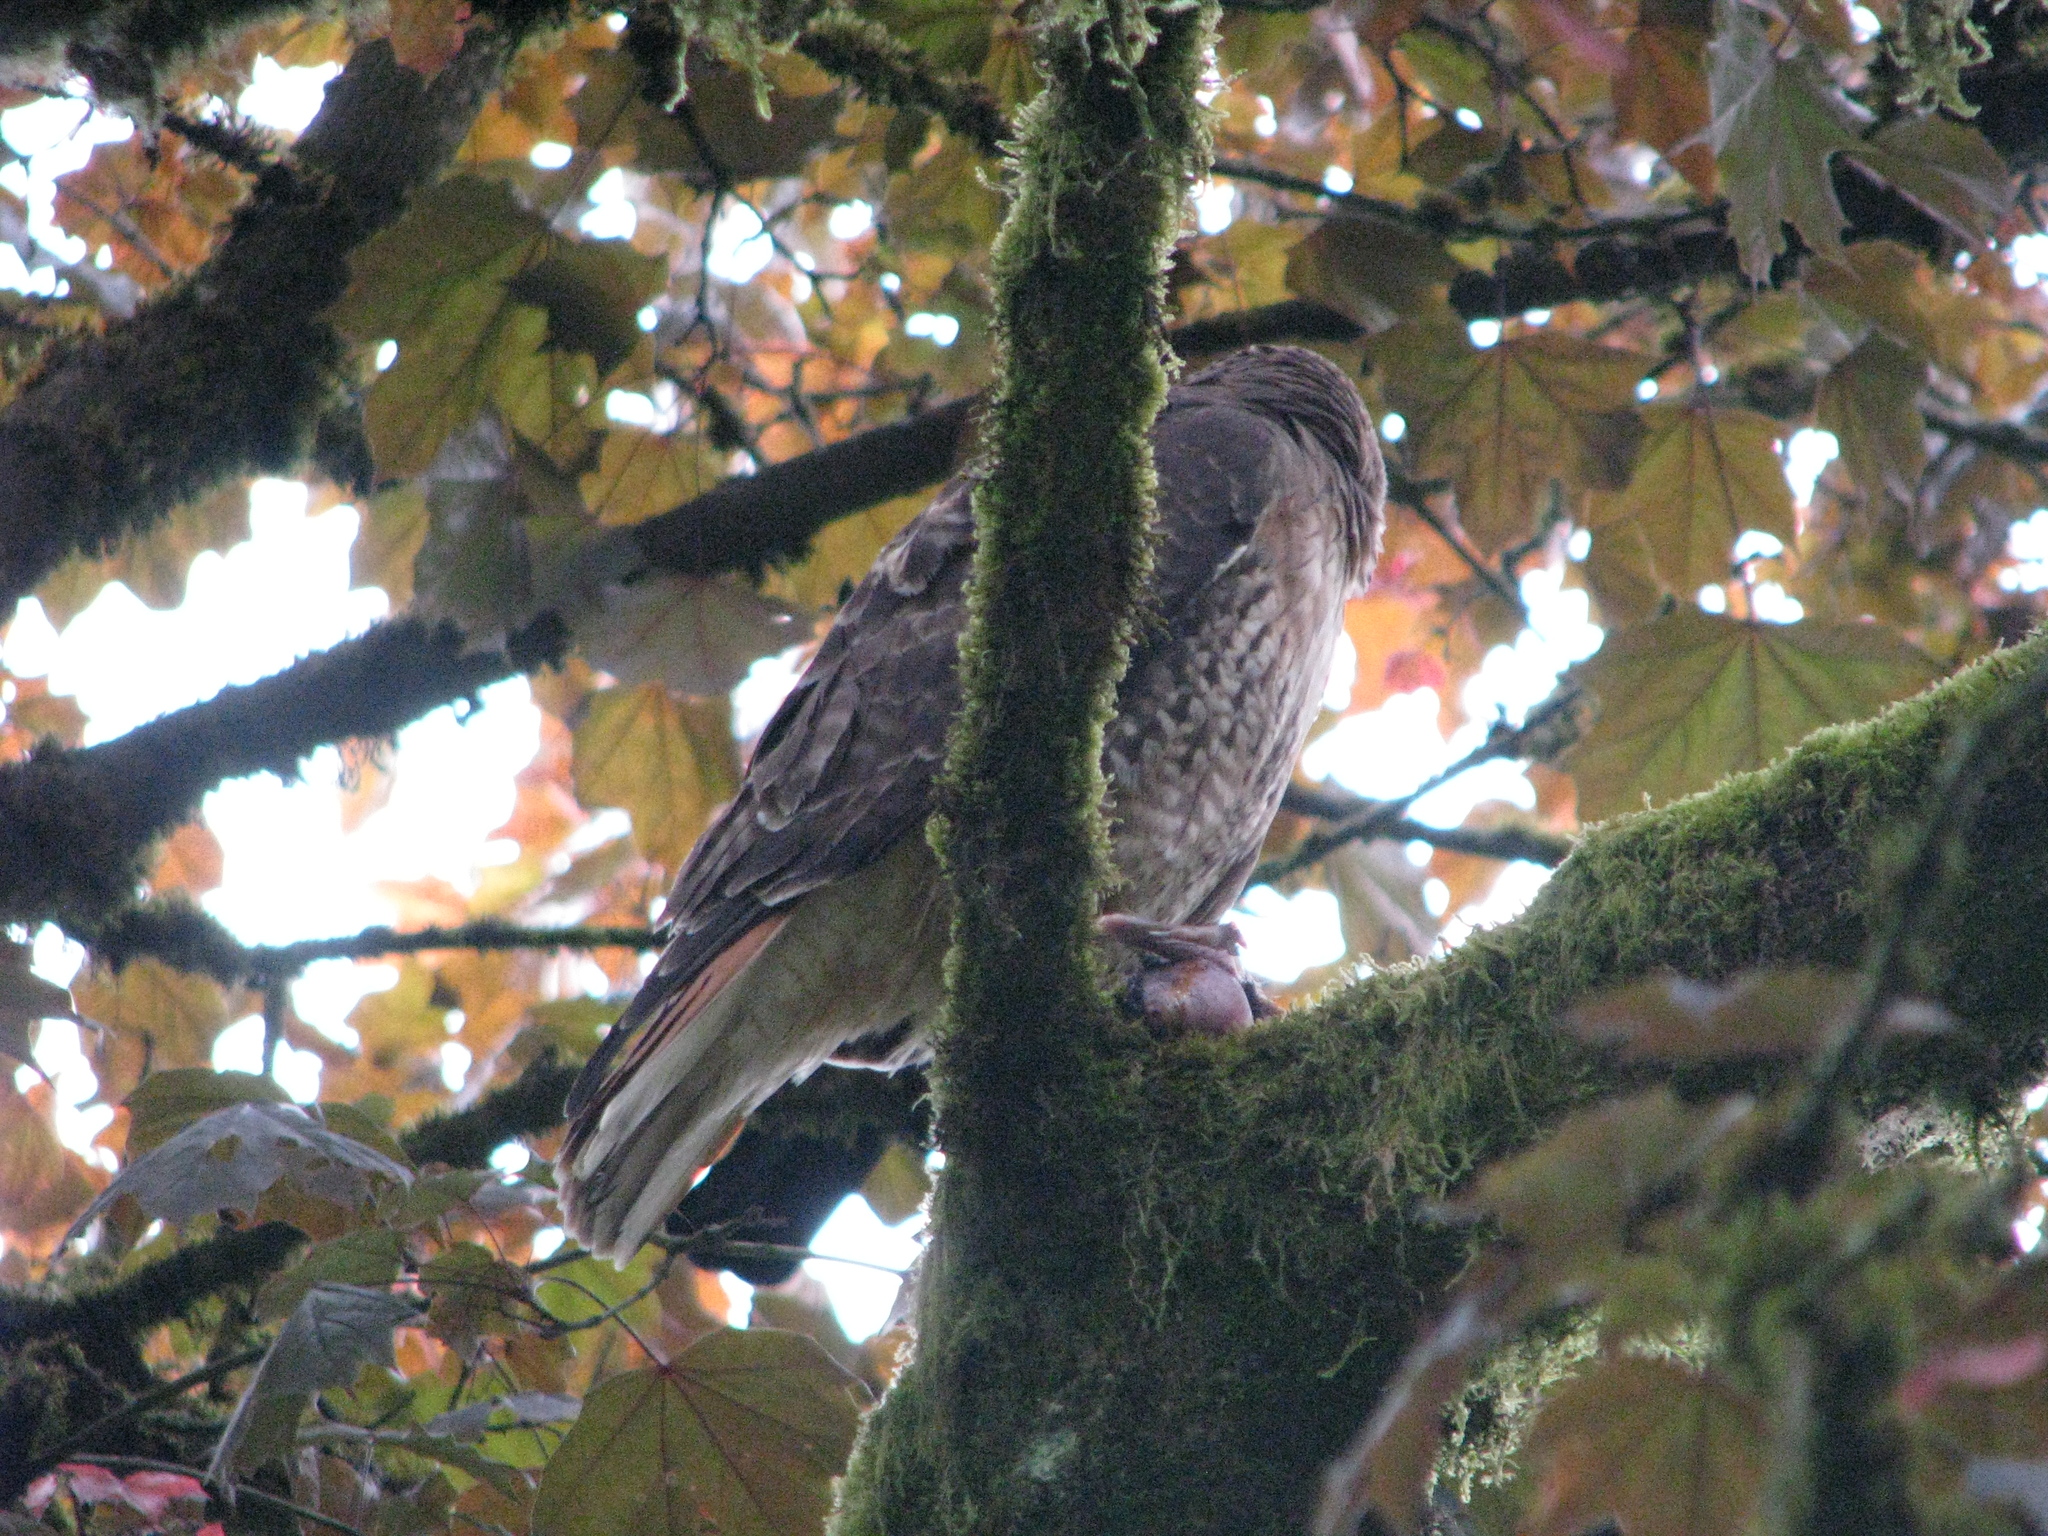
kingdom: Animalia
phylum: Chordata
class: Aves
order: Accipitriformes
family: Accipitridae
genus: Buteo
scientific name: Buteo jamaicensis
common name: Red-tailed hawk
